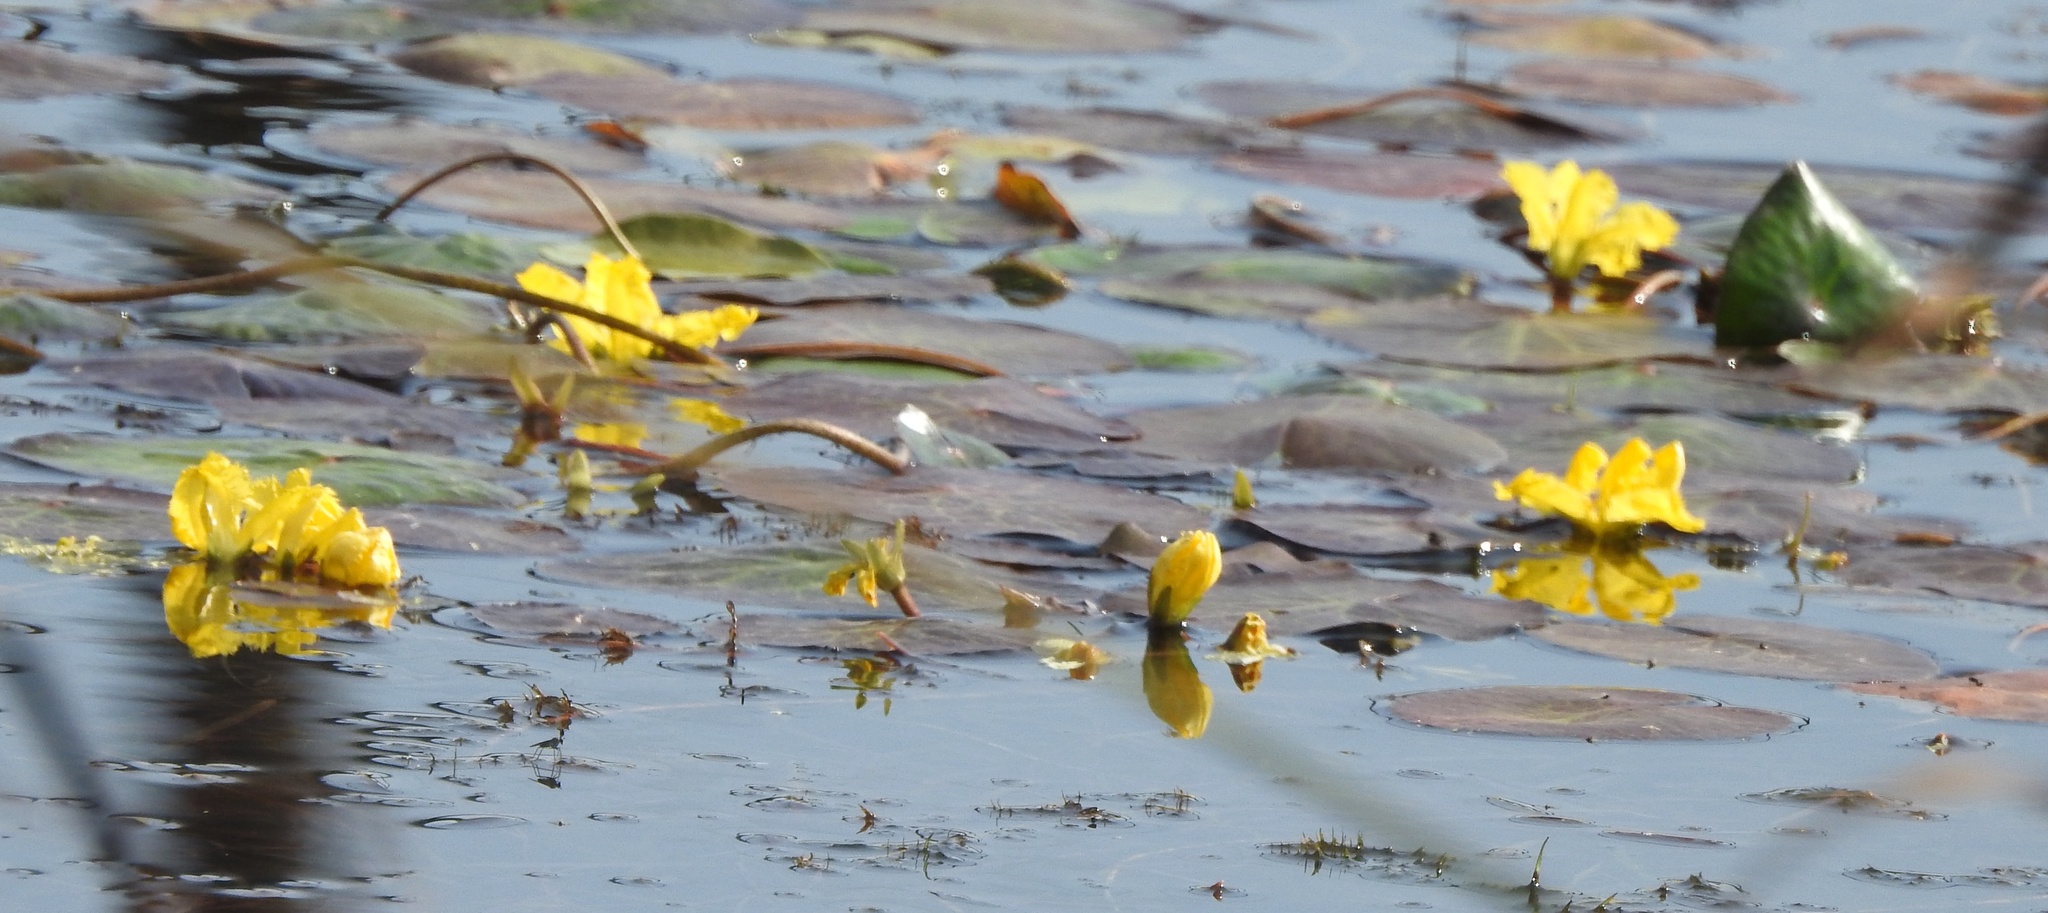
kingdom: Plantae
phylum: Tracheophyta
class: Magnoliopsida
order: Asterales
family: Menyanthaceae
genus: Nymphoides
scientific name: Nymphoides peltata
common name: Fringed water-lily
